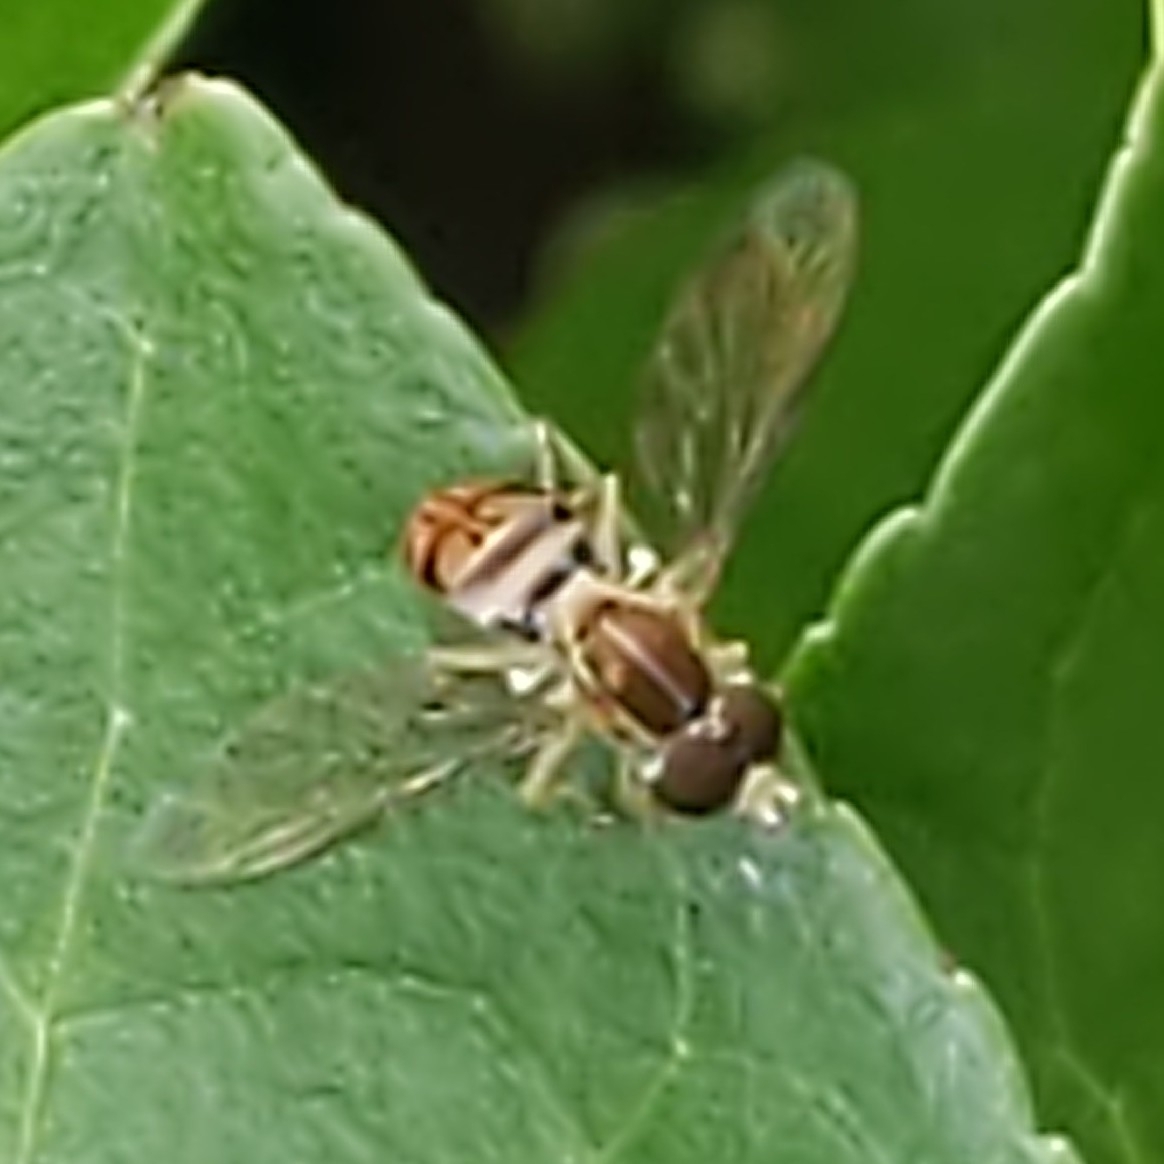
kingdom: Animalia
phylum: Arthropoda
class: Insecta
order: Diptera
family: Syrphidae
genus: Toxomerus
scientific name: Toxomerus marginatus
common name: Syrphid fly
